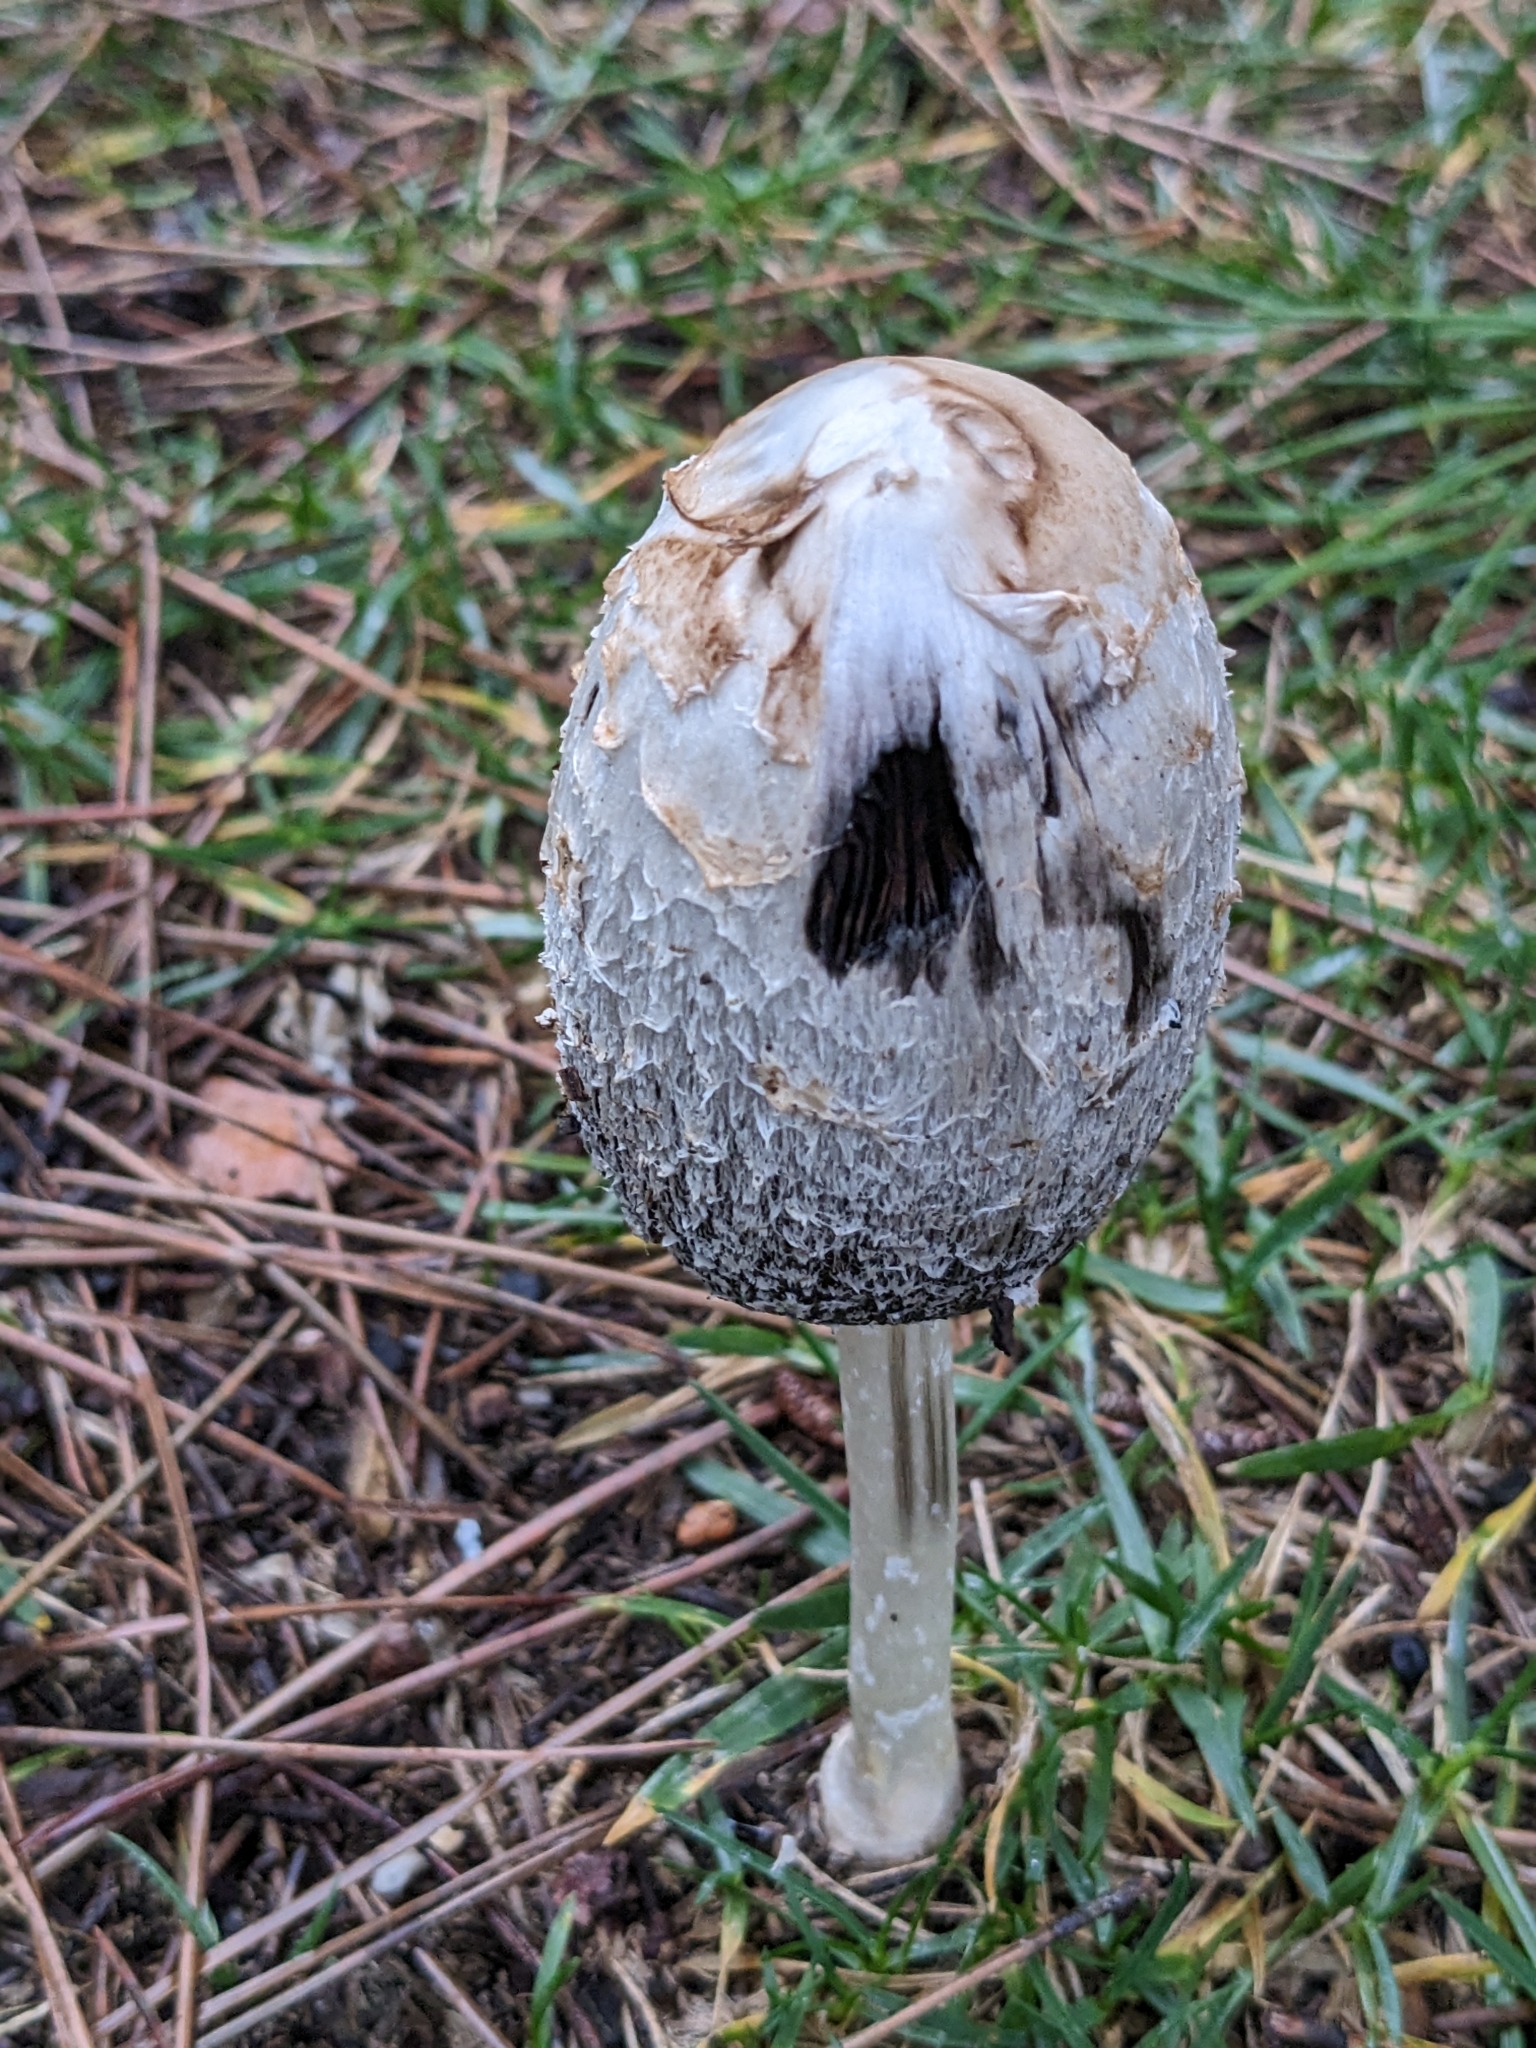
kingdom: Fungi
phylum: Basidiomycota
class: Agaricomycetes
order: Agaricales
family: Agaricaceae
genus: Coprinus
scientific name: Coprinus comatus
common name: Lawyer's wig
